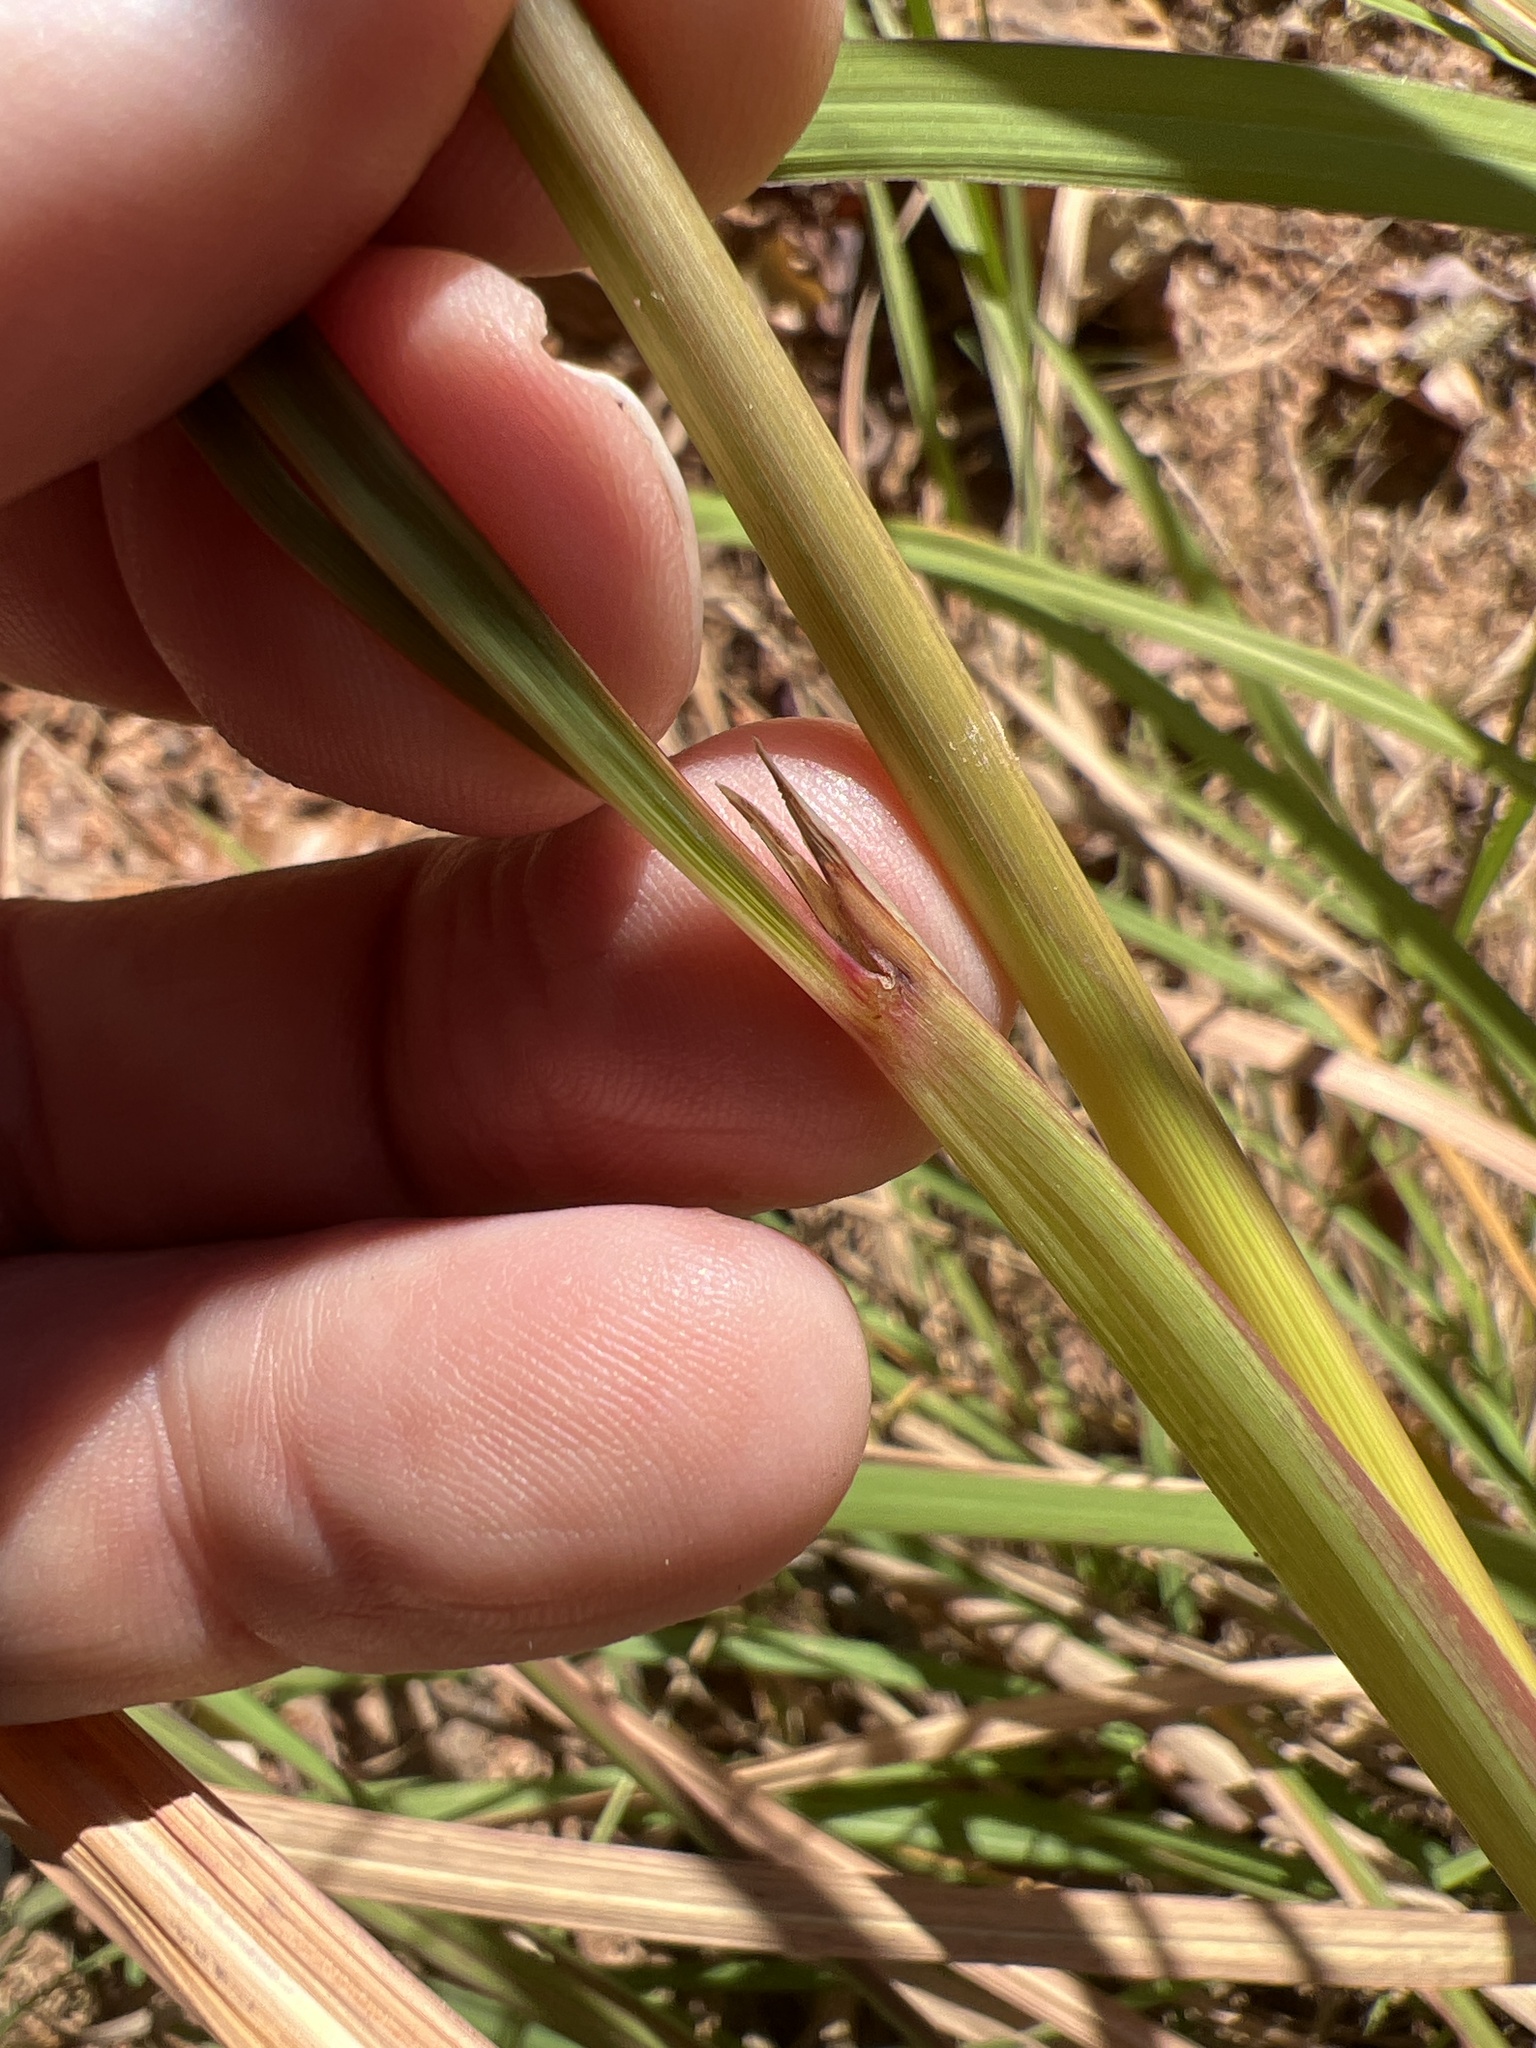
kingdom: Plantae
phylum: Tracheophyta
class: Liliopsida
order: Poales
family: Poaceae
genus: Sorghastrum
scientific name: Sorghastrum nutans
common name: Indian grass
